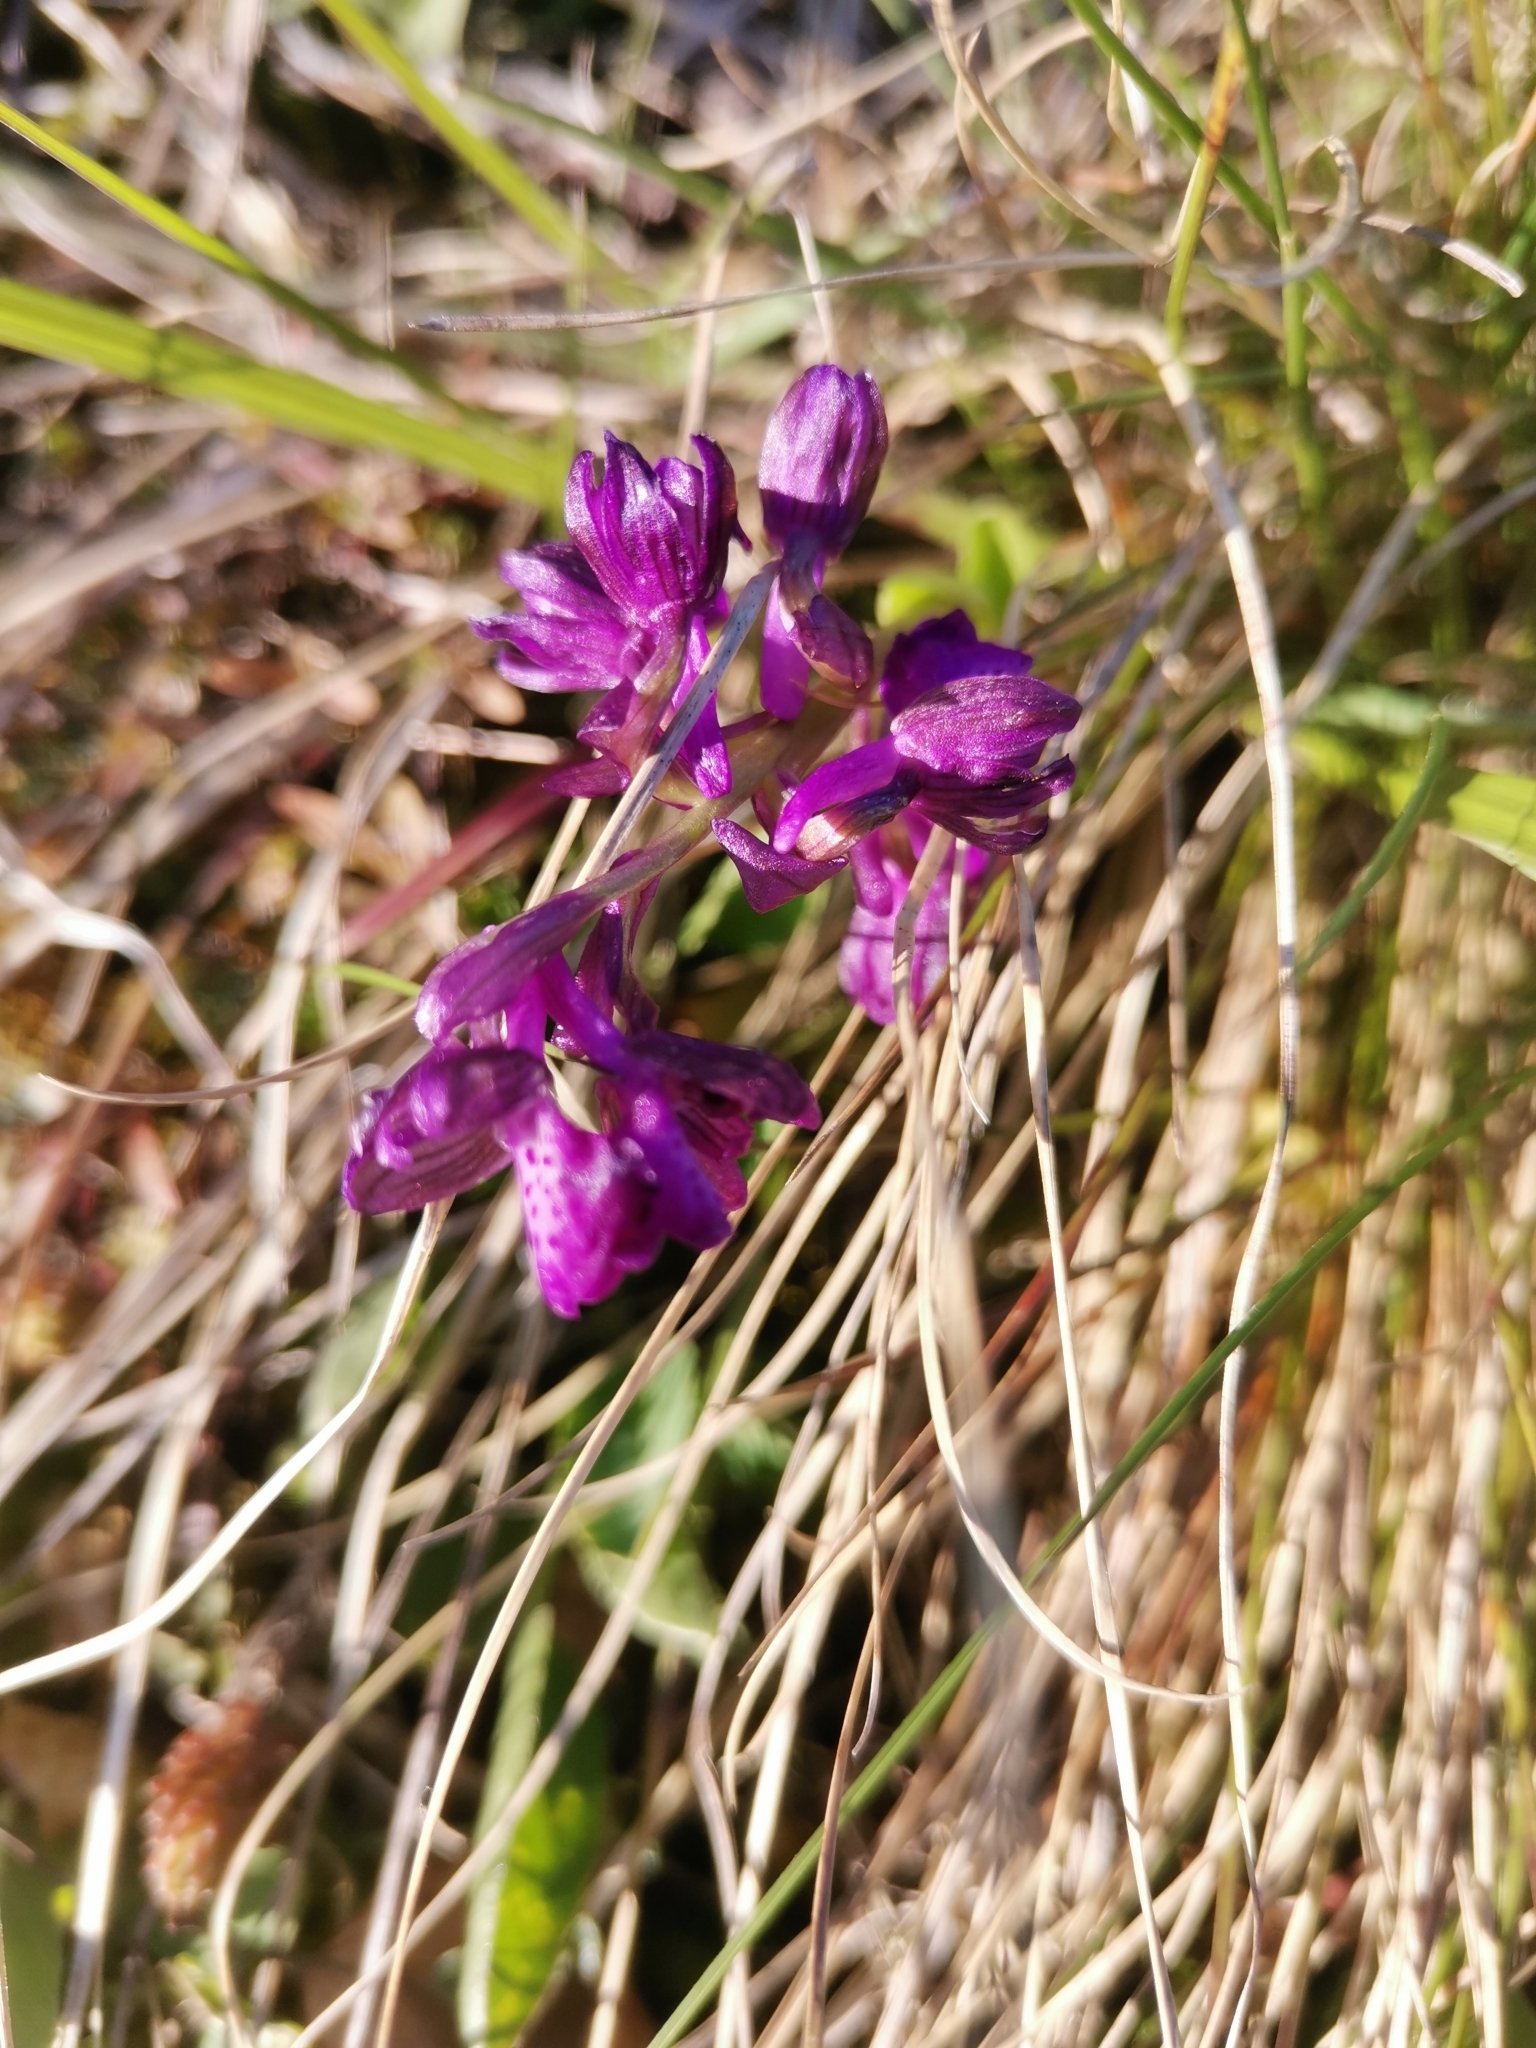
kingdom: Plantae
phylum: Tracheophyta
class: Liliopsida
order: Asparagales
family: Orchidaceae
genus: Anacamptis
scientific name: Anacamptis morio
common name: Green-winged orchid
